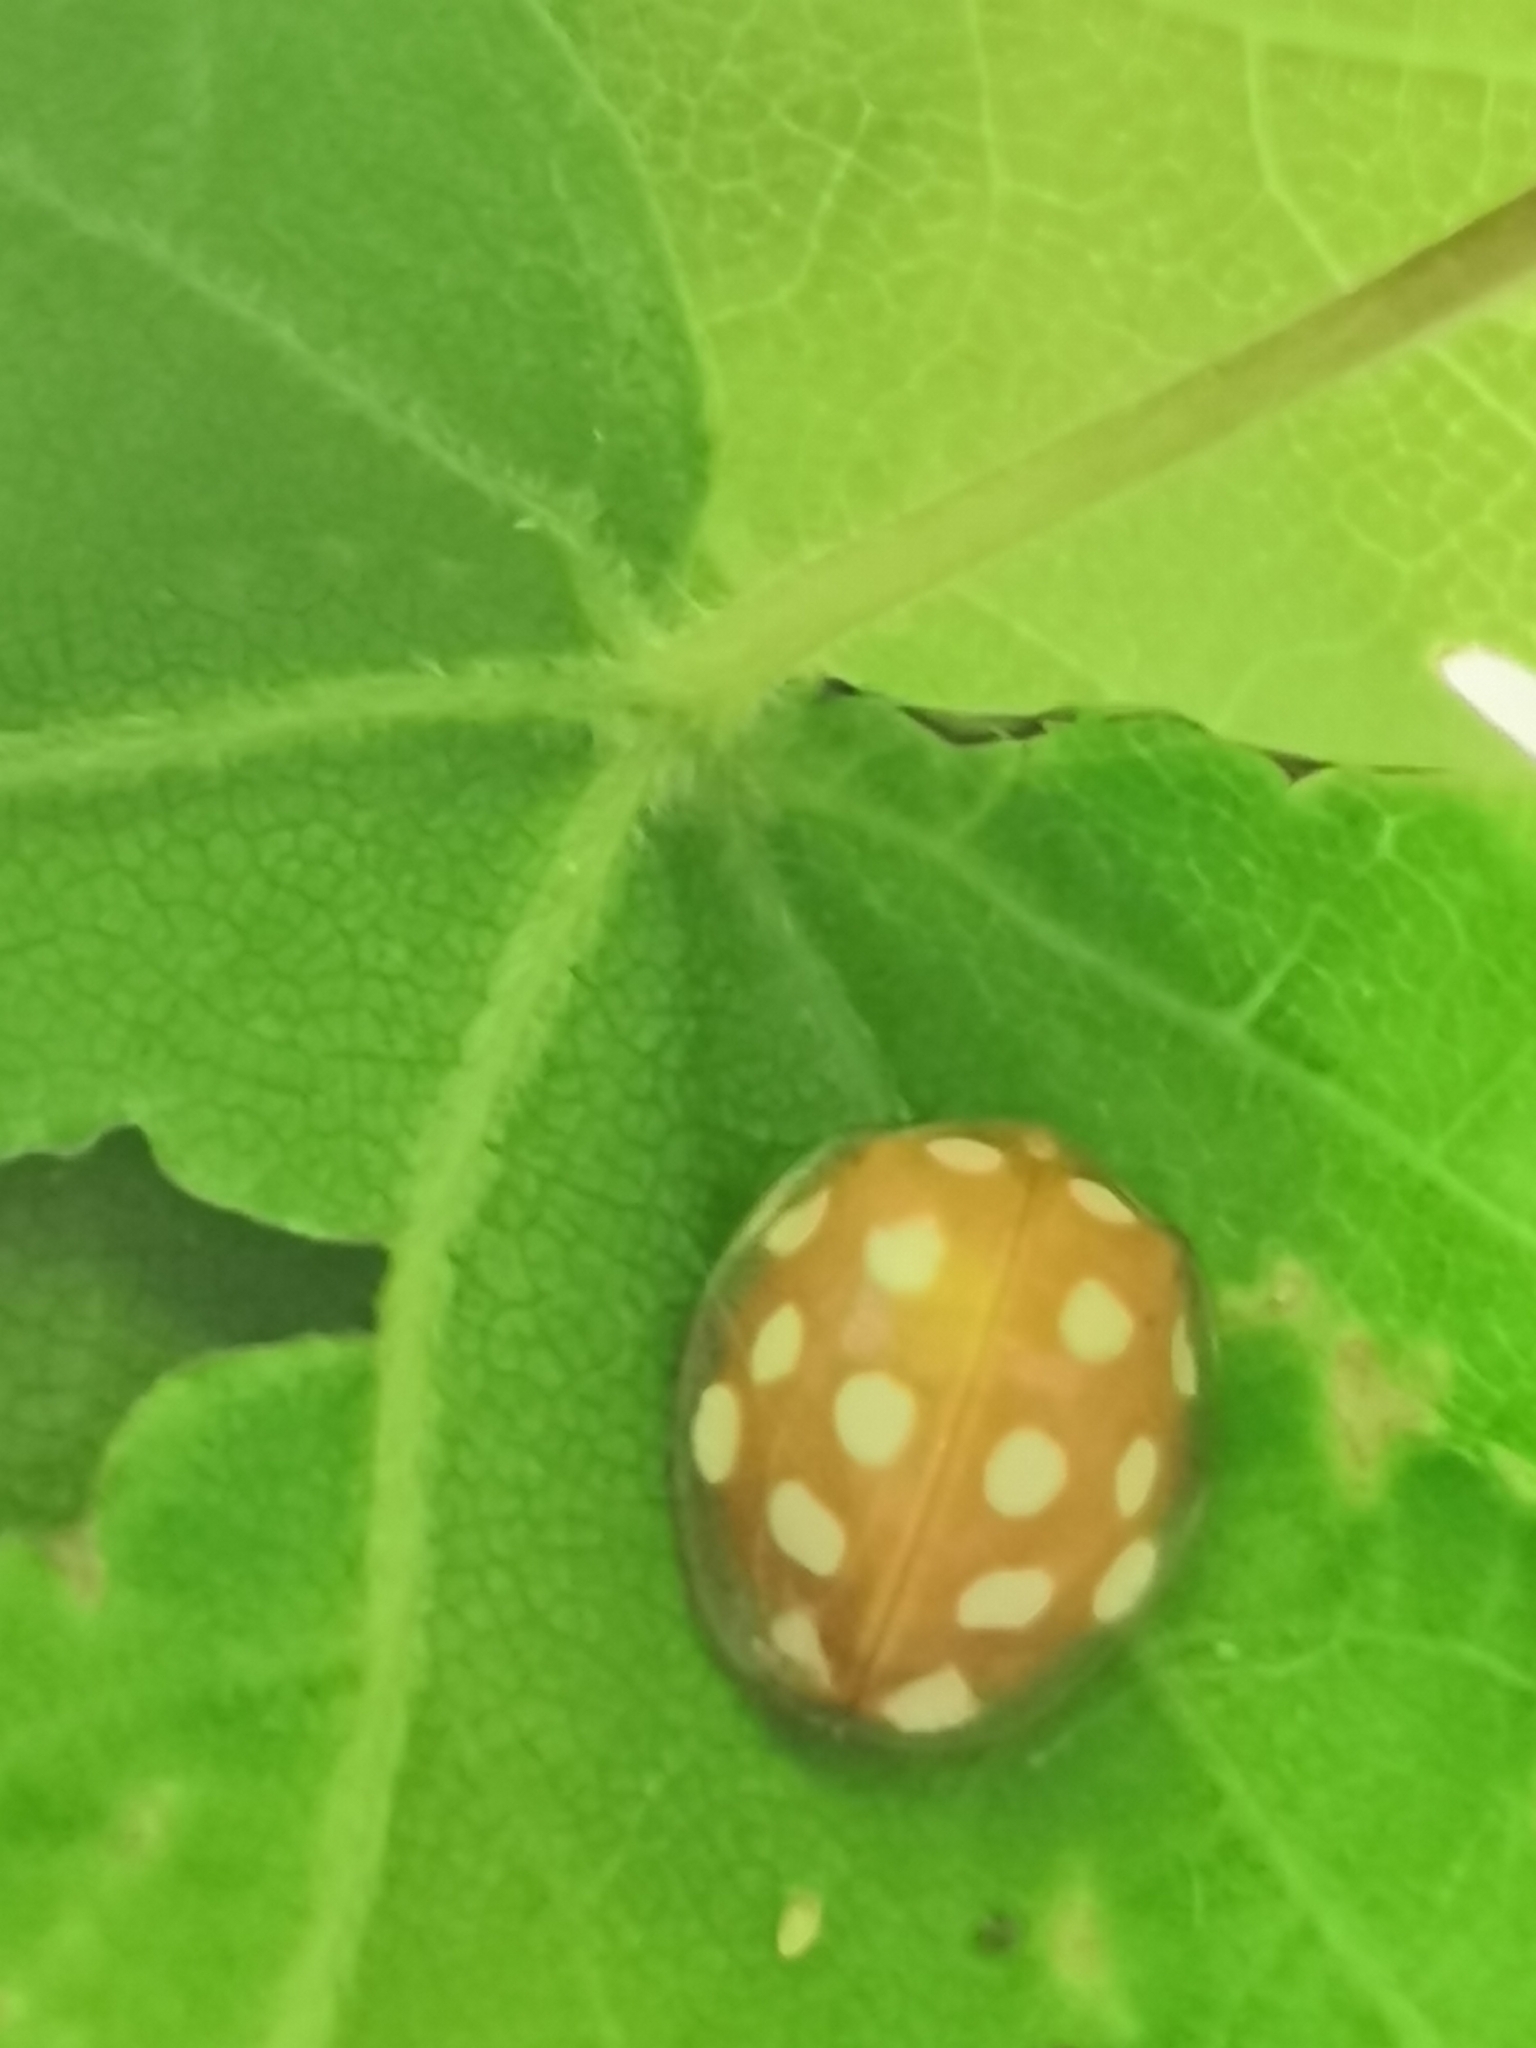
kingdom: Animalia
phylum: Arthropoda
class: Insecta
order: Coleoptera
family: Coccinellidae
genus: Halyzia
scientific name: Halyzia sedecimguttata
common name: Orange ladybird
